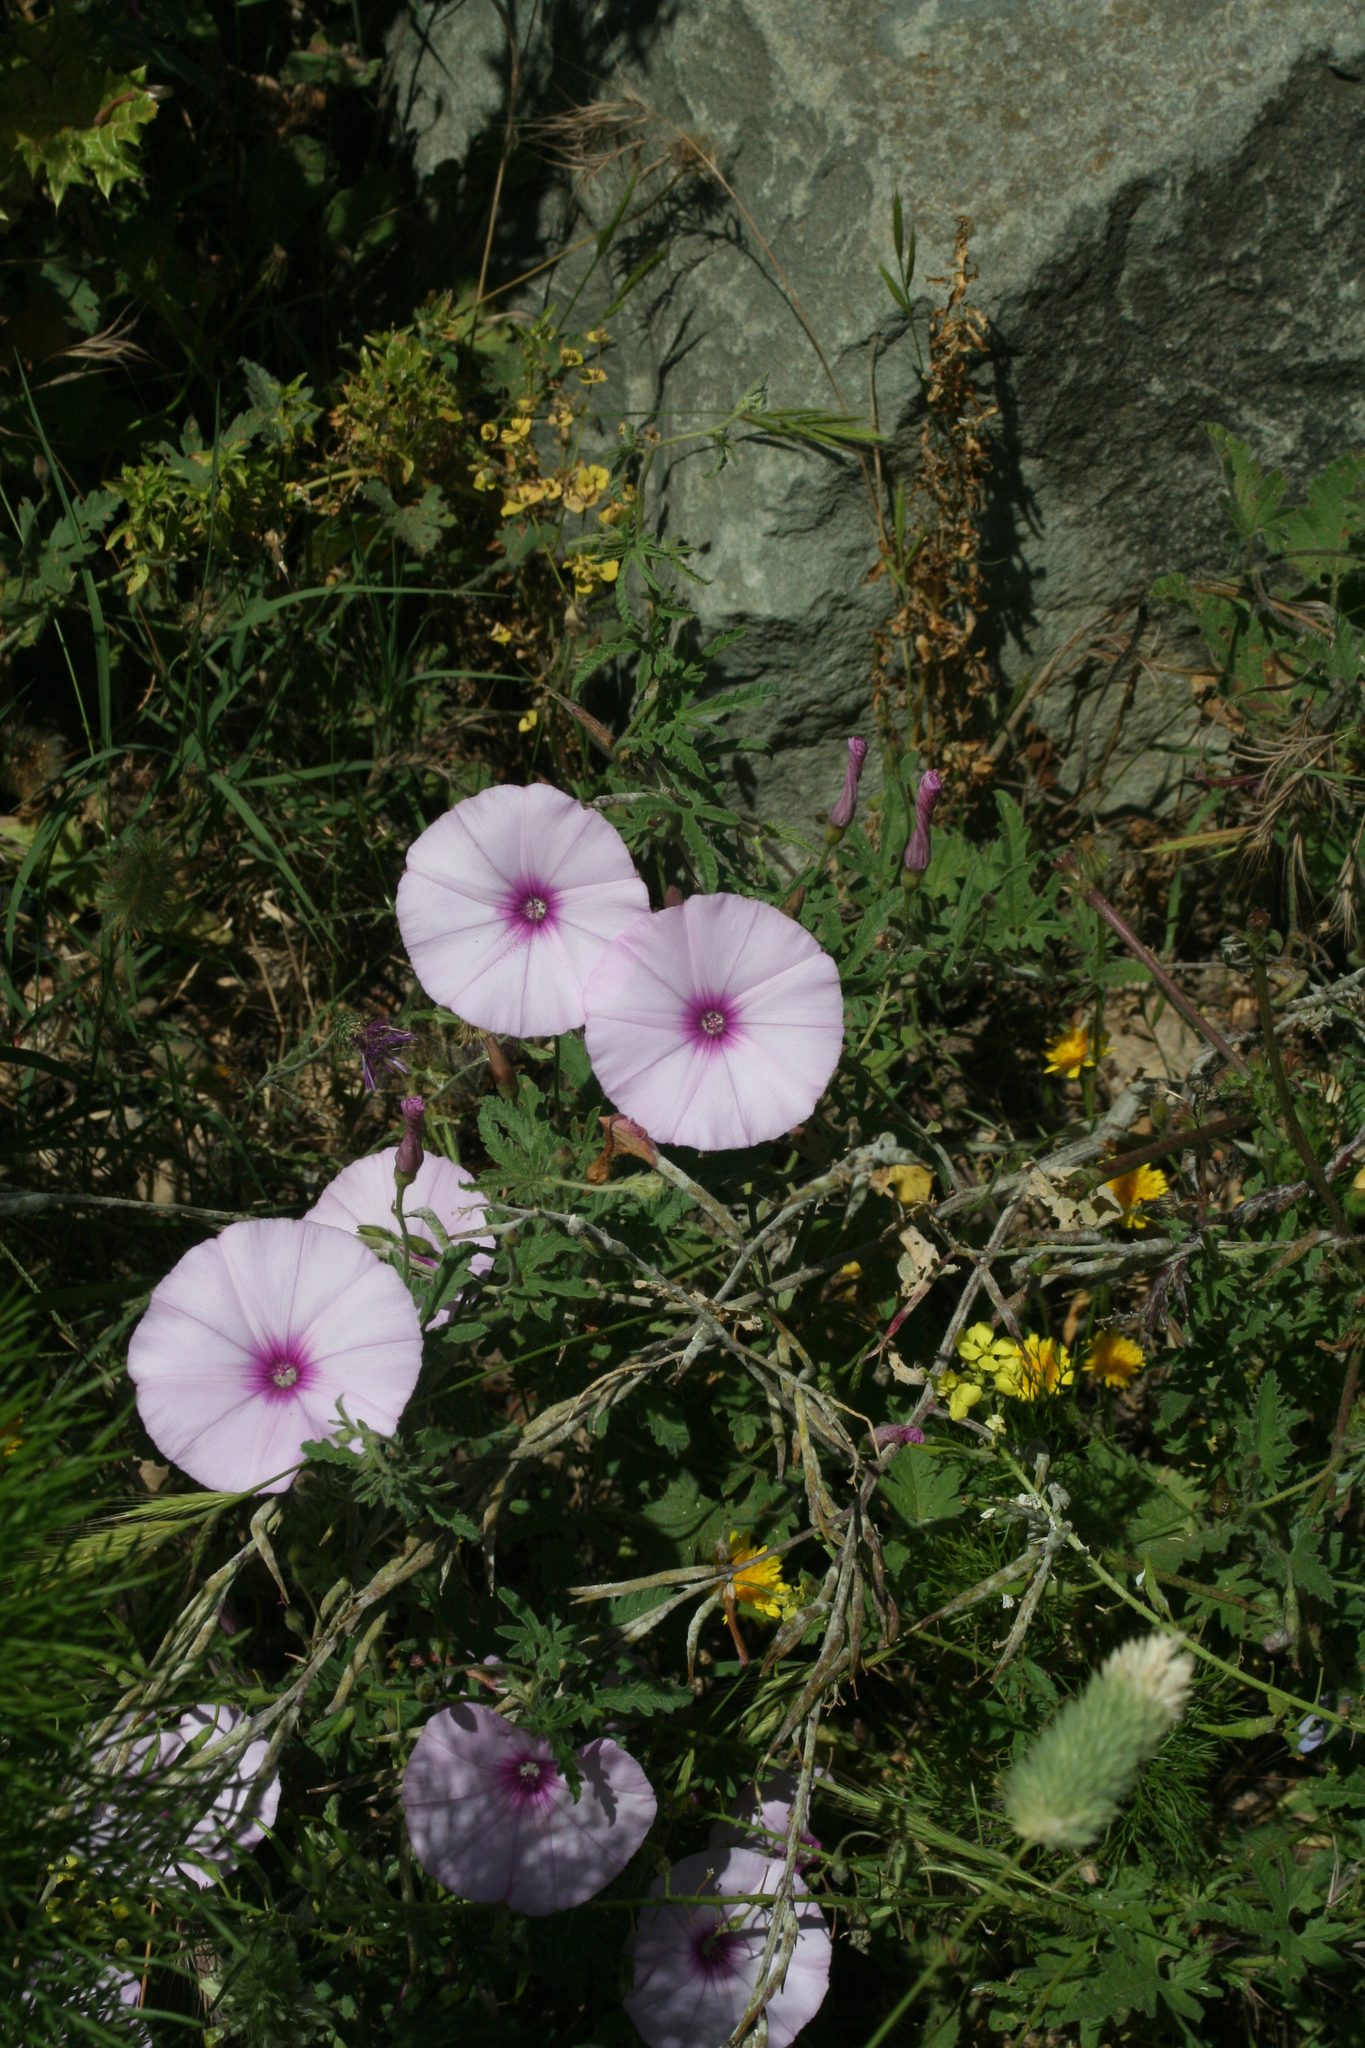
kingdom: Plantae
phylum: Tracheophyta
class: Magnoliopsida
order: Solanales
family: Convolvulaceae
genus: Convolvulus
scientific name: Convolvulus althaeoides
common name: Mallow bindweed
